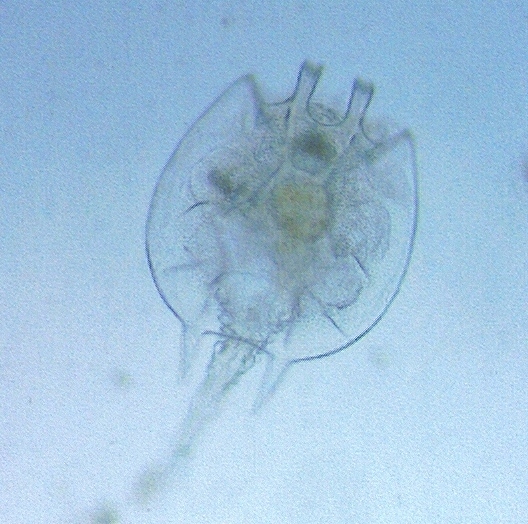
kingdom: Animalia
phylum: Rotifera
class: Eurotatoria
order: Ploima
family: Brachionidae
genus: Platyias
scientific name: Platyias quadricornis
